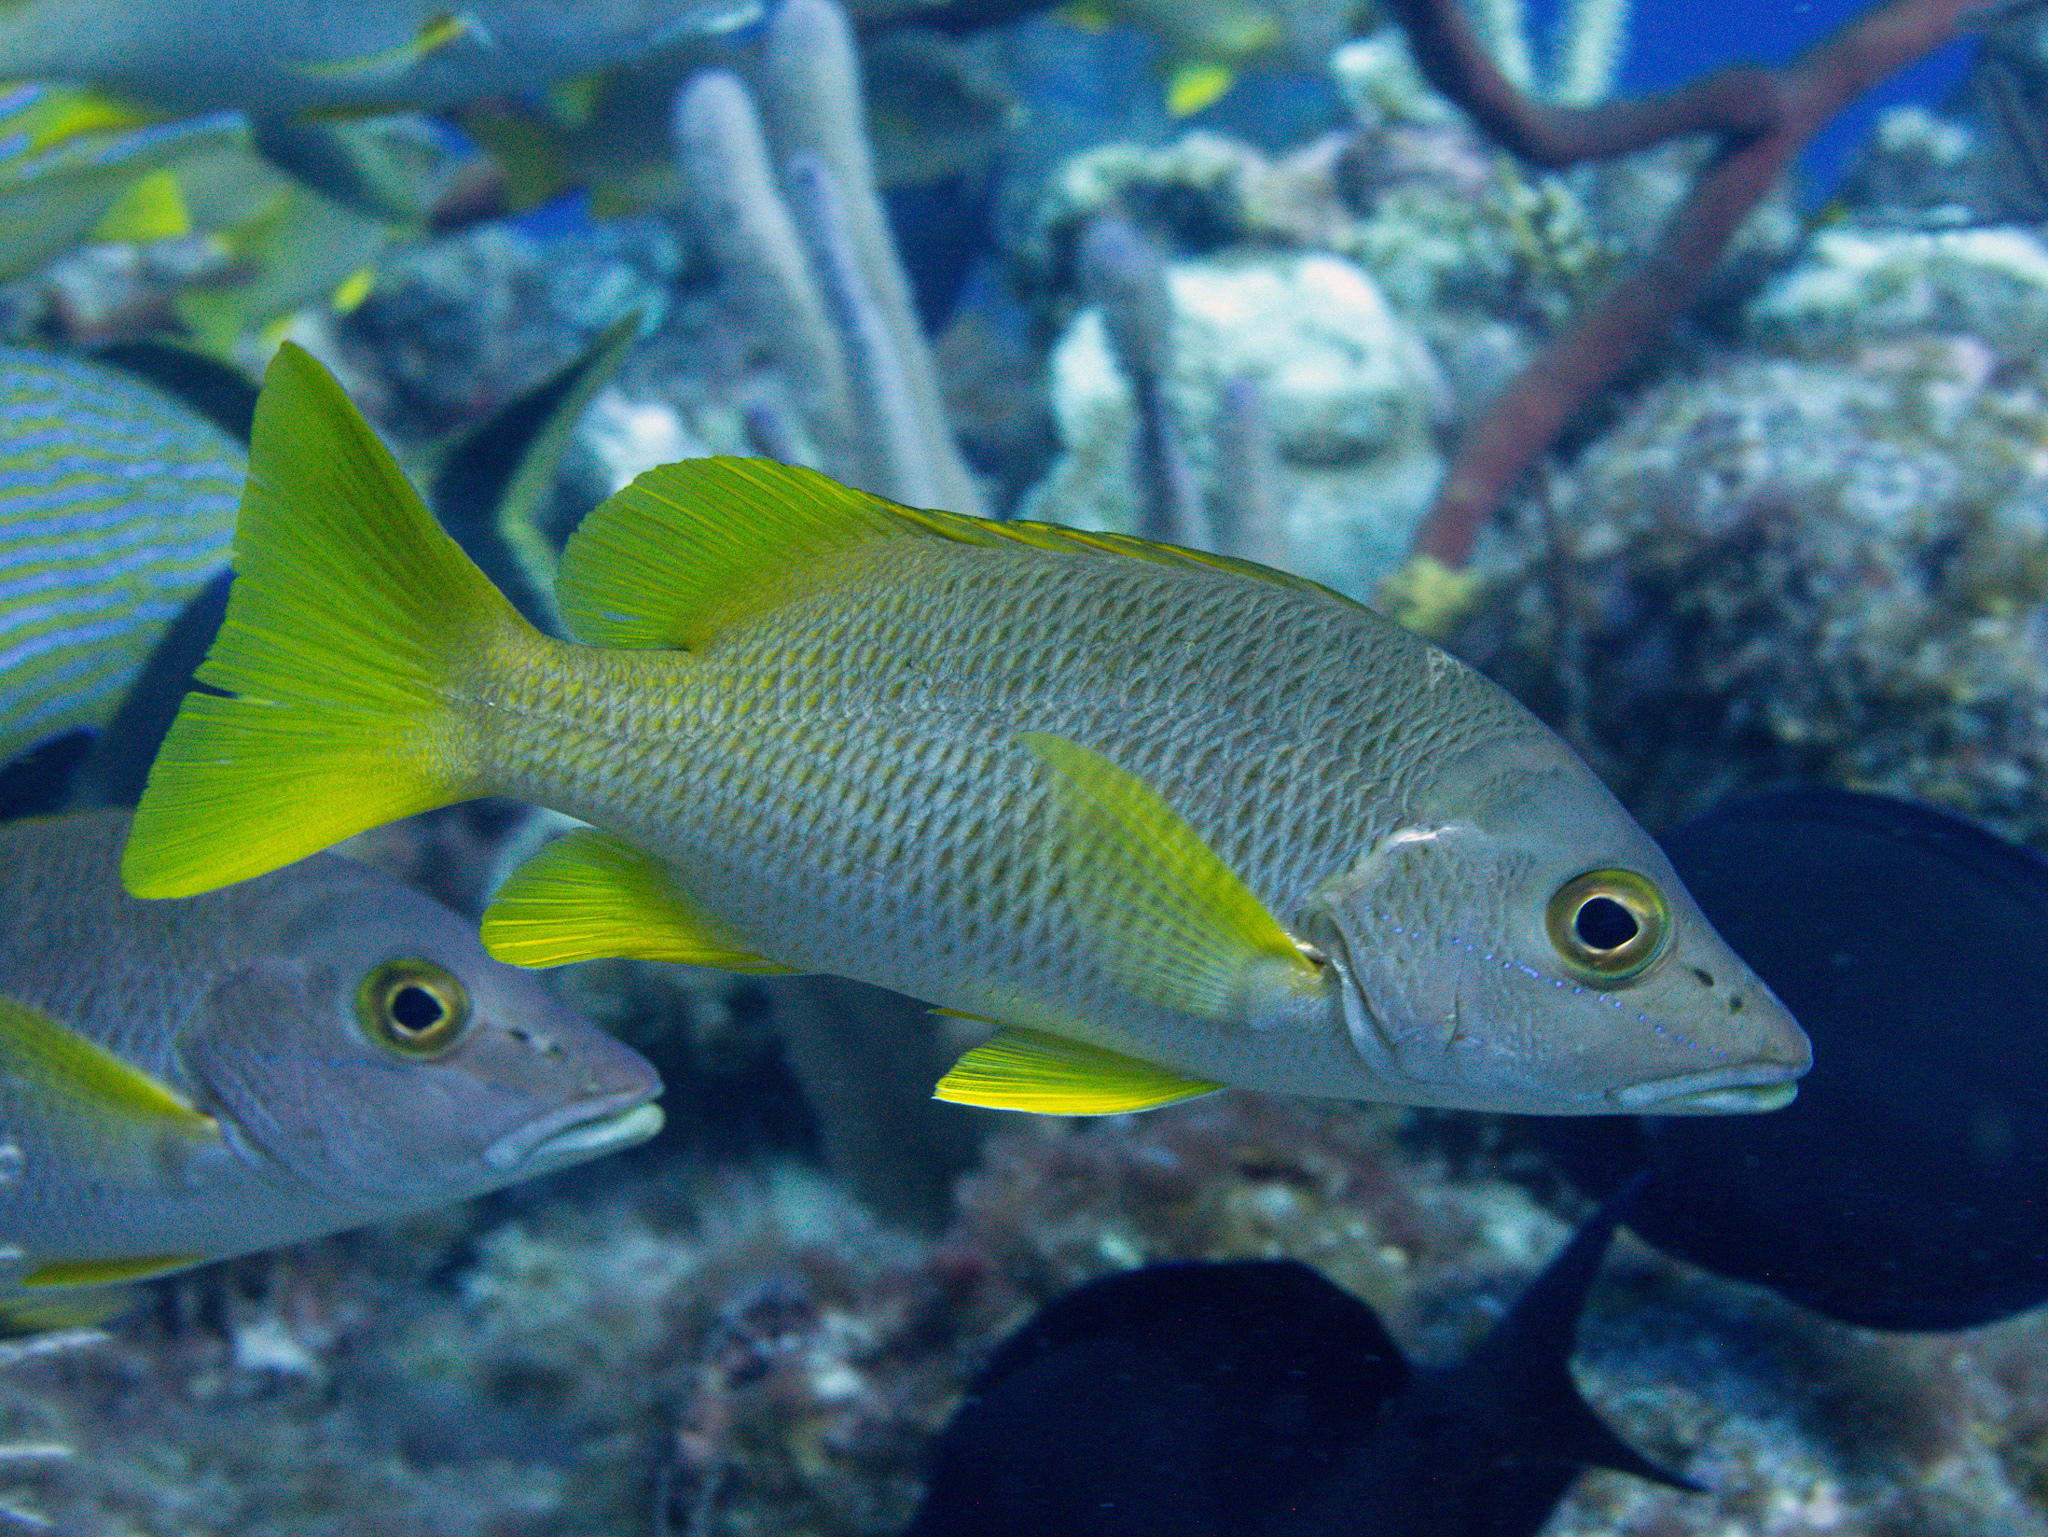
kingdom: Animalia
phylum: Chordata
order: Perciformes
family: Lutjanidae
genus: Lutjanus
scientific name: Lutjanus apodus
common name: Schoolmaster
